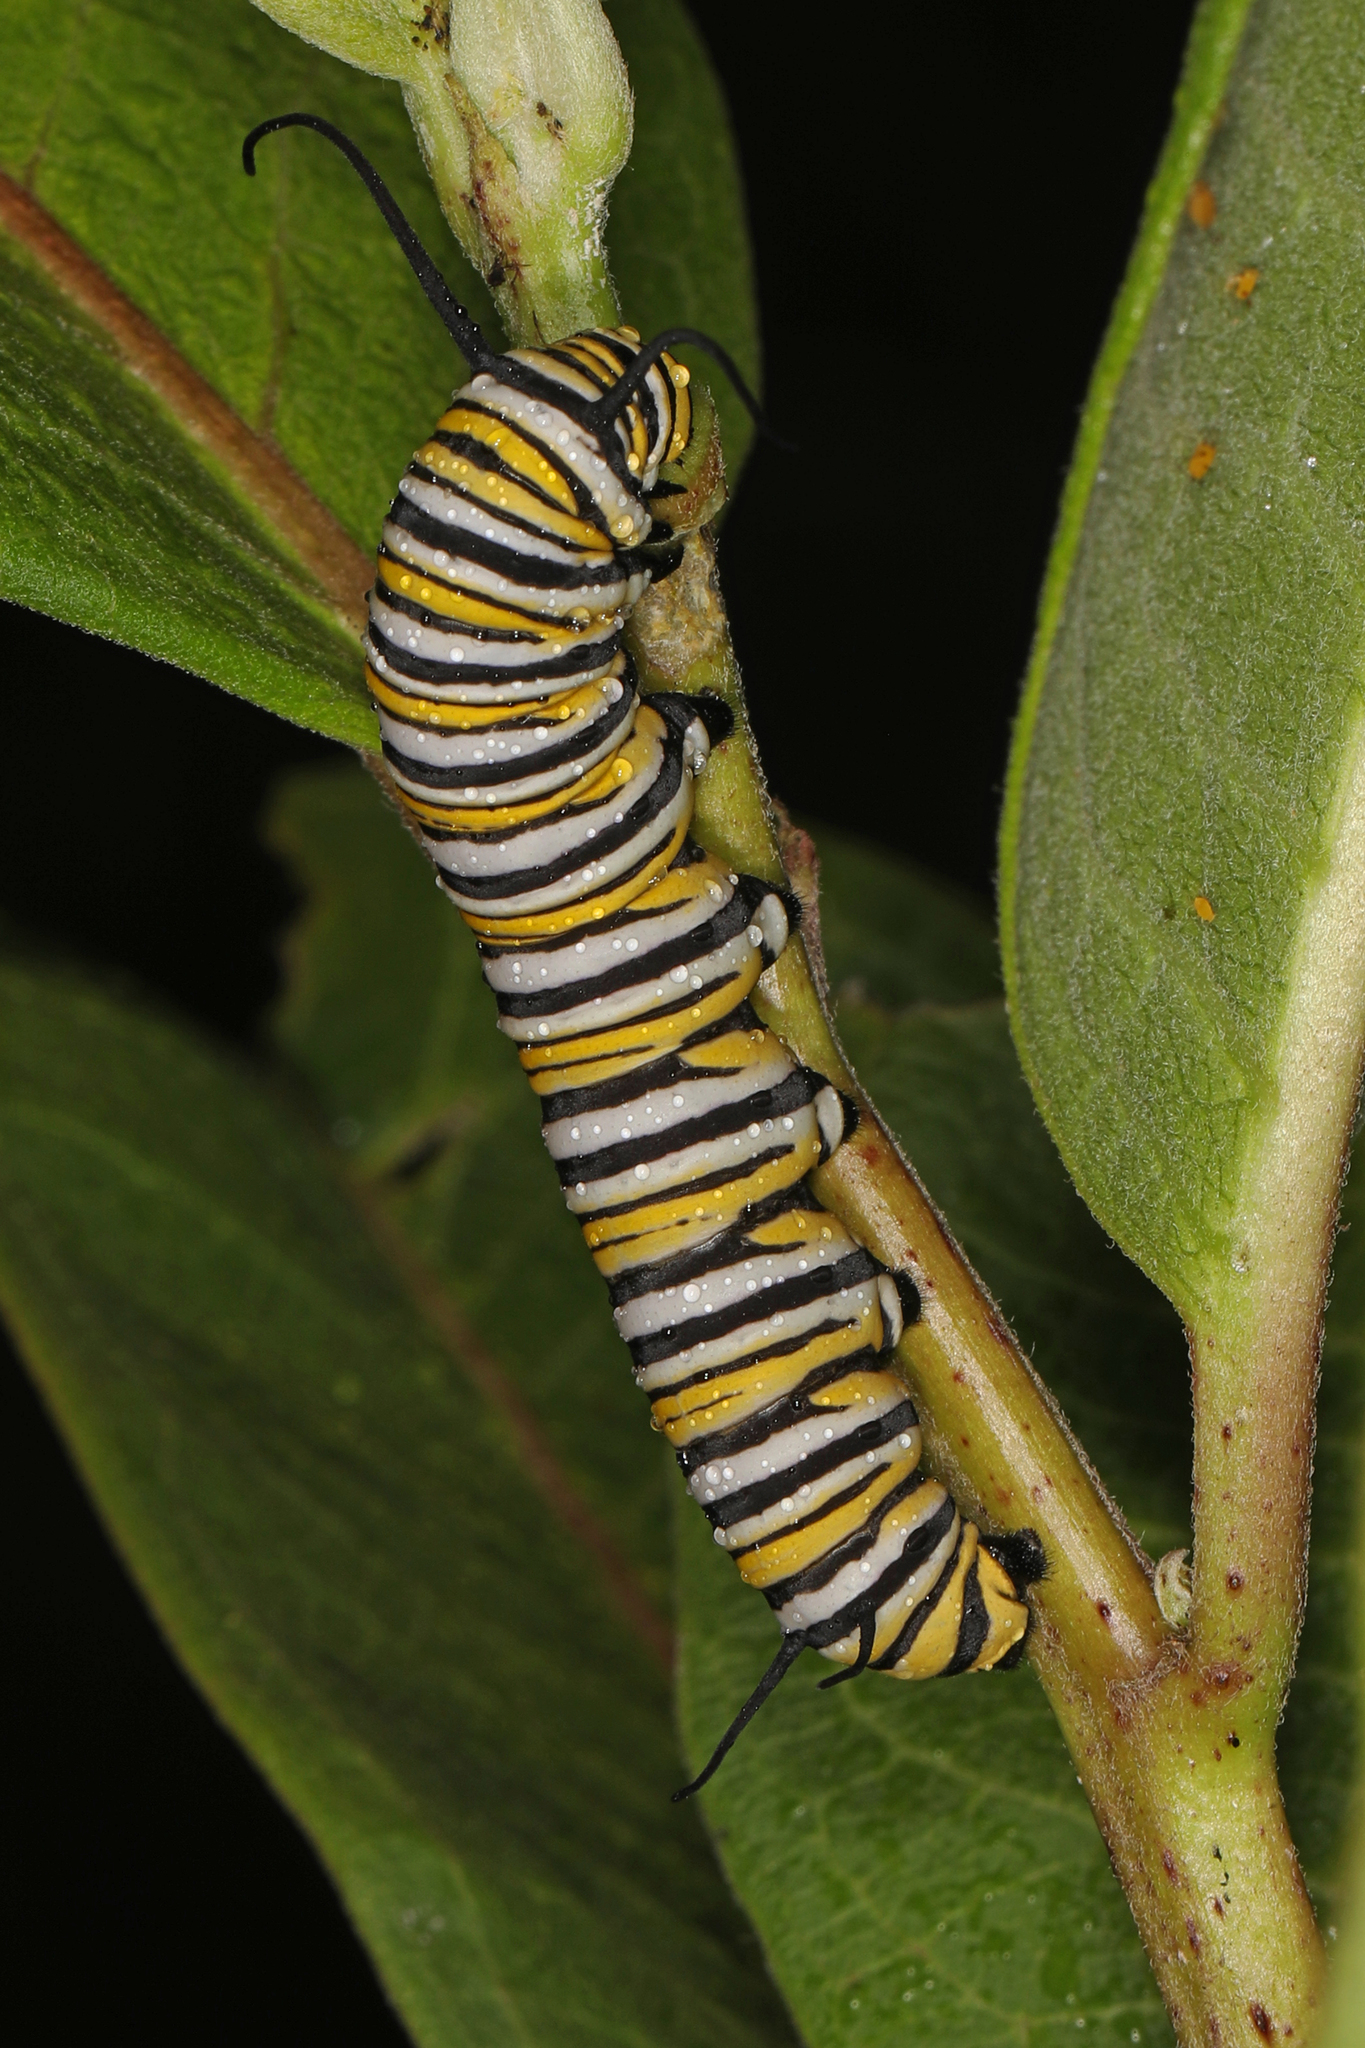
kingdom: Animalia
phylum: Arthropoda
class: Insecta
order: Lepidoptera
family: Nymphalidae
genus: Danaus
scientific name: Danaus plexippus
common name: Monarch
